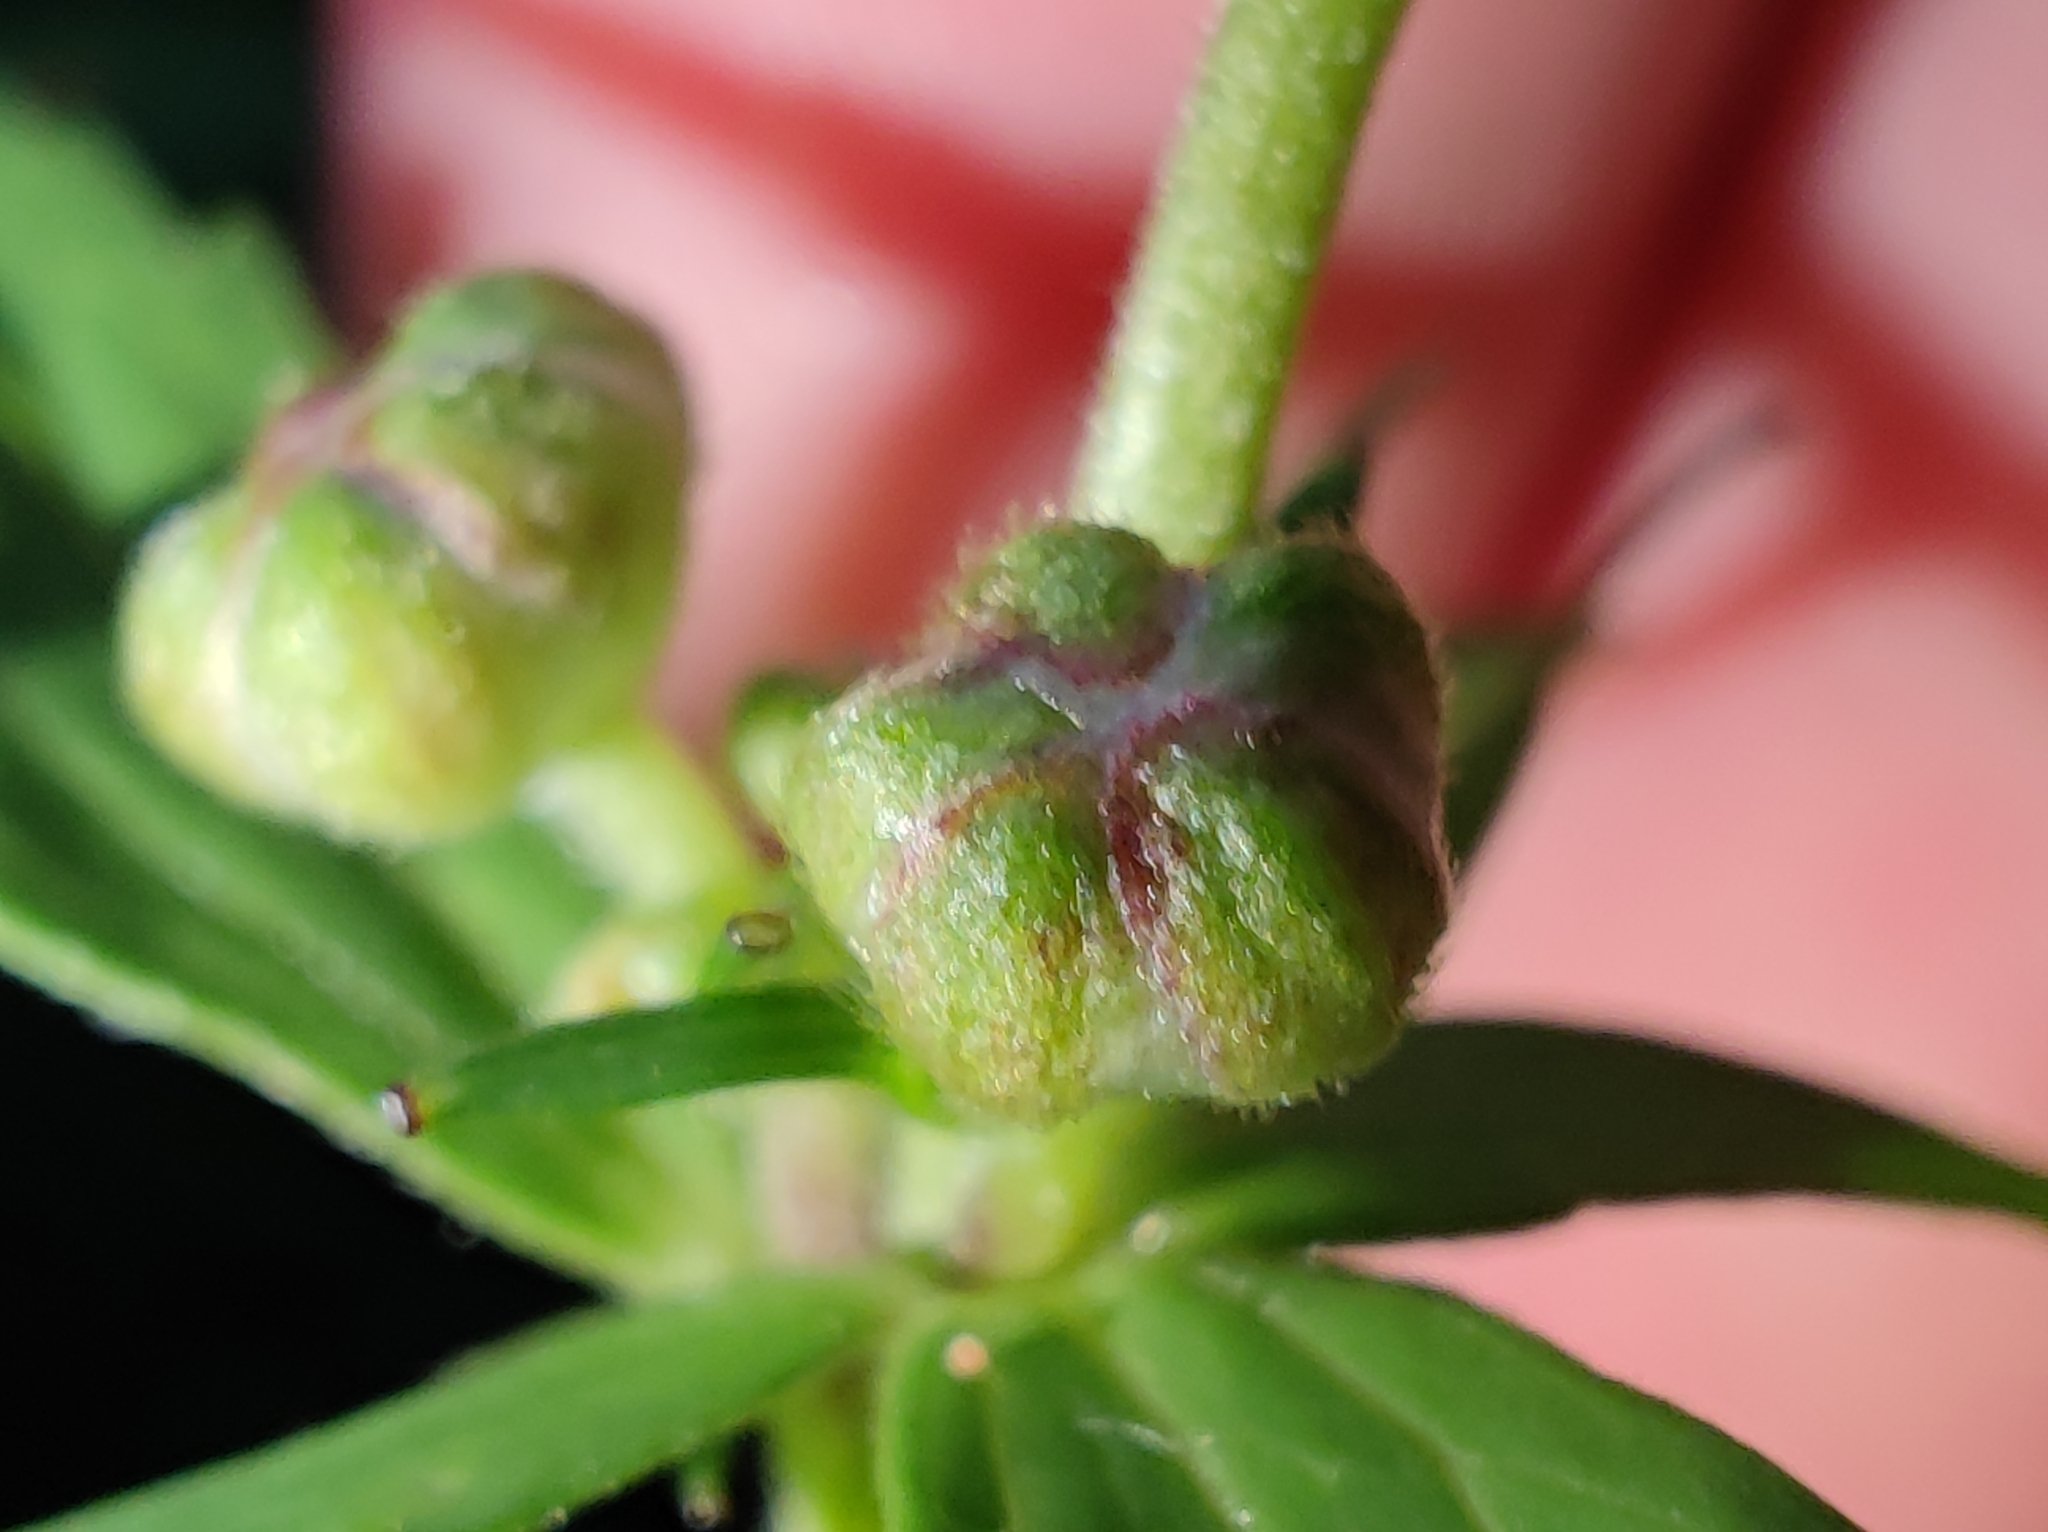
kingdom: Plantae
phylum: Tracheophyta
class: Magnoliopsida
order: Ranunculales
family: Ranunculaceae
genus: Ranunculus
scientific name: Ranunculus aconitifolius
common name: Aconite-leaved buttercup
